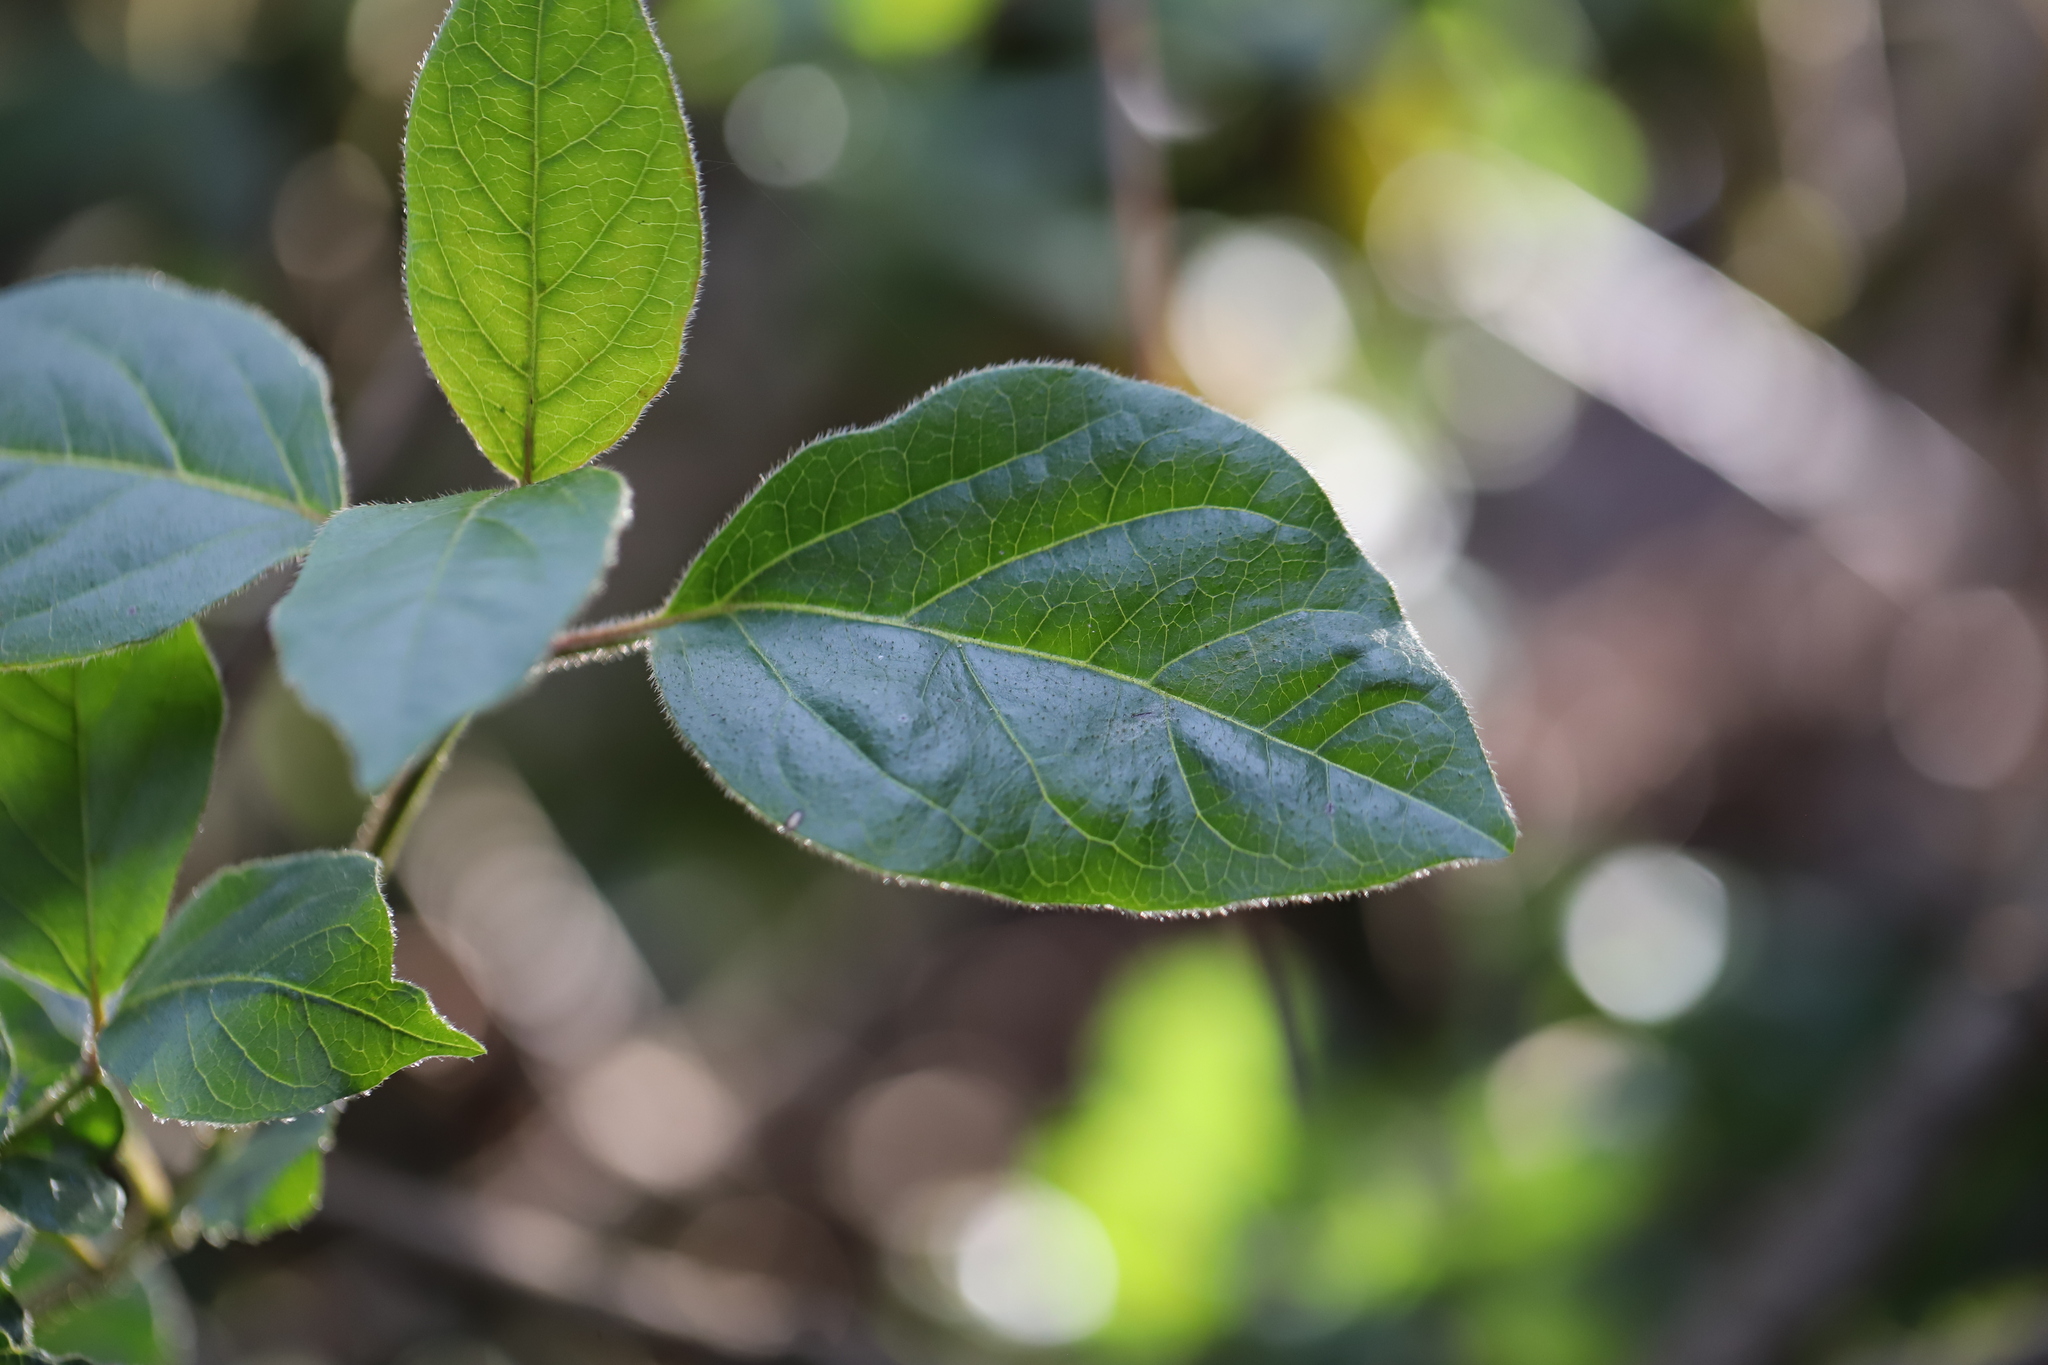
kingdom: Plantae
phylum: Tracheophyta
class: Magnoliopsida
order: Dipsacales
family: Viburnaceae
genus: Viburnum
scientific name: Viburnum tinus
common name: Laurustinus
